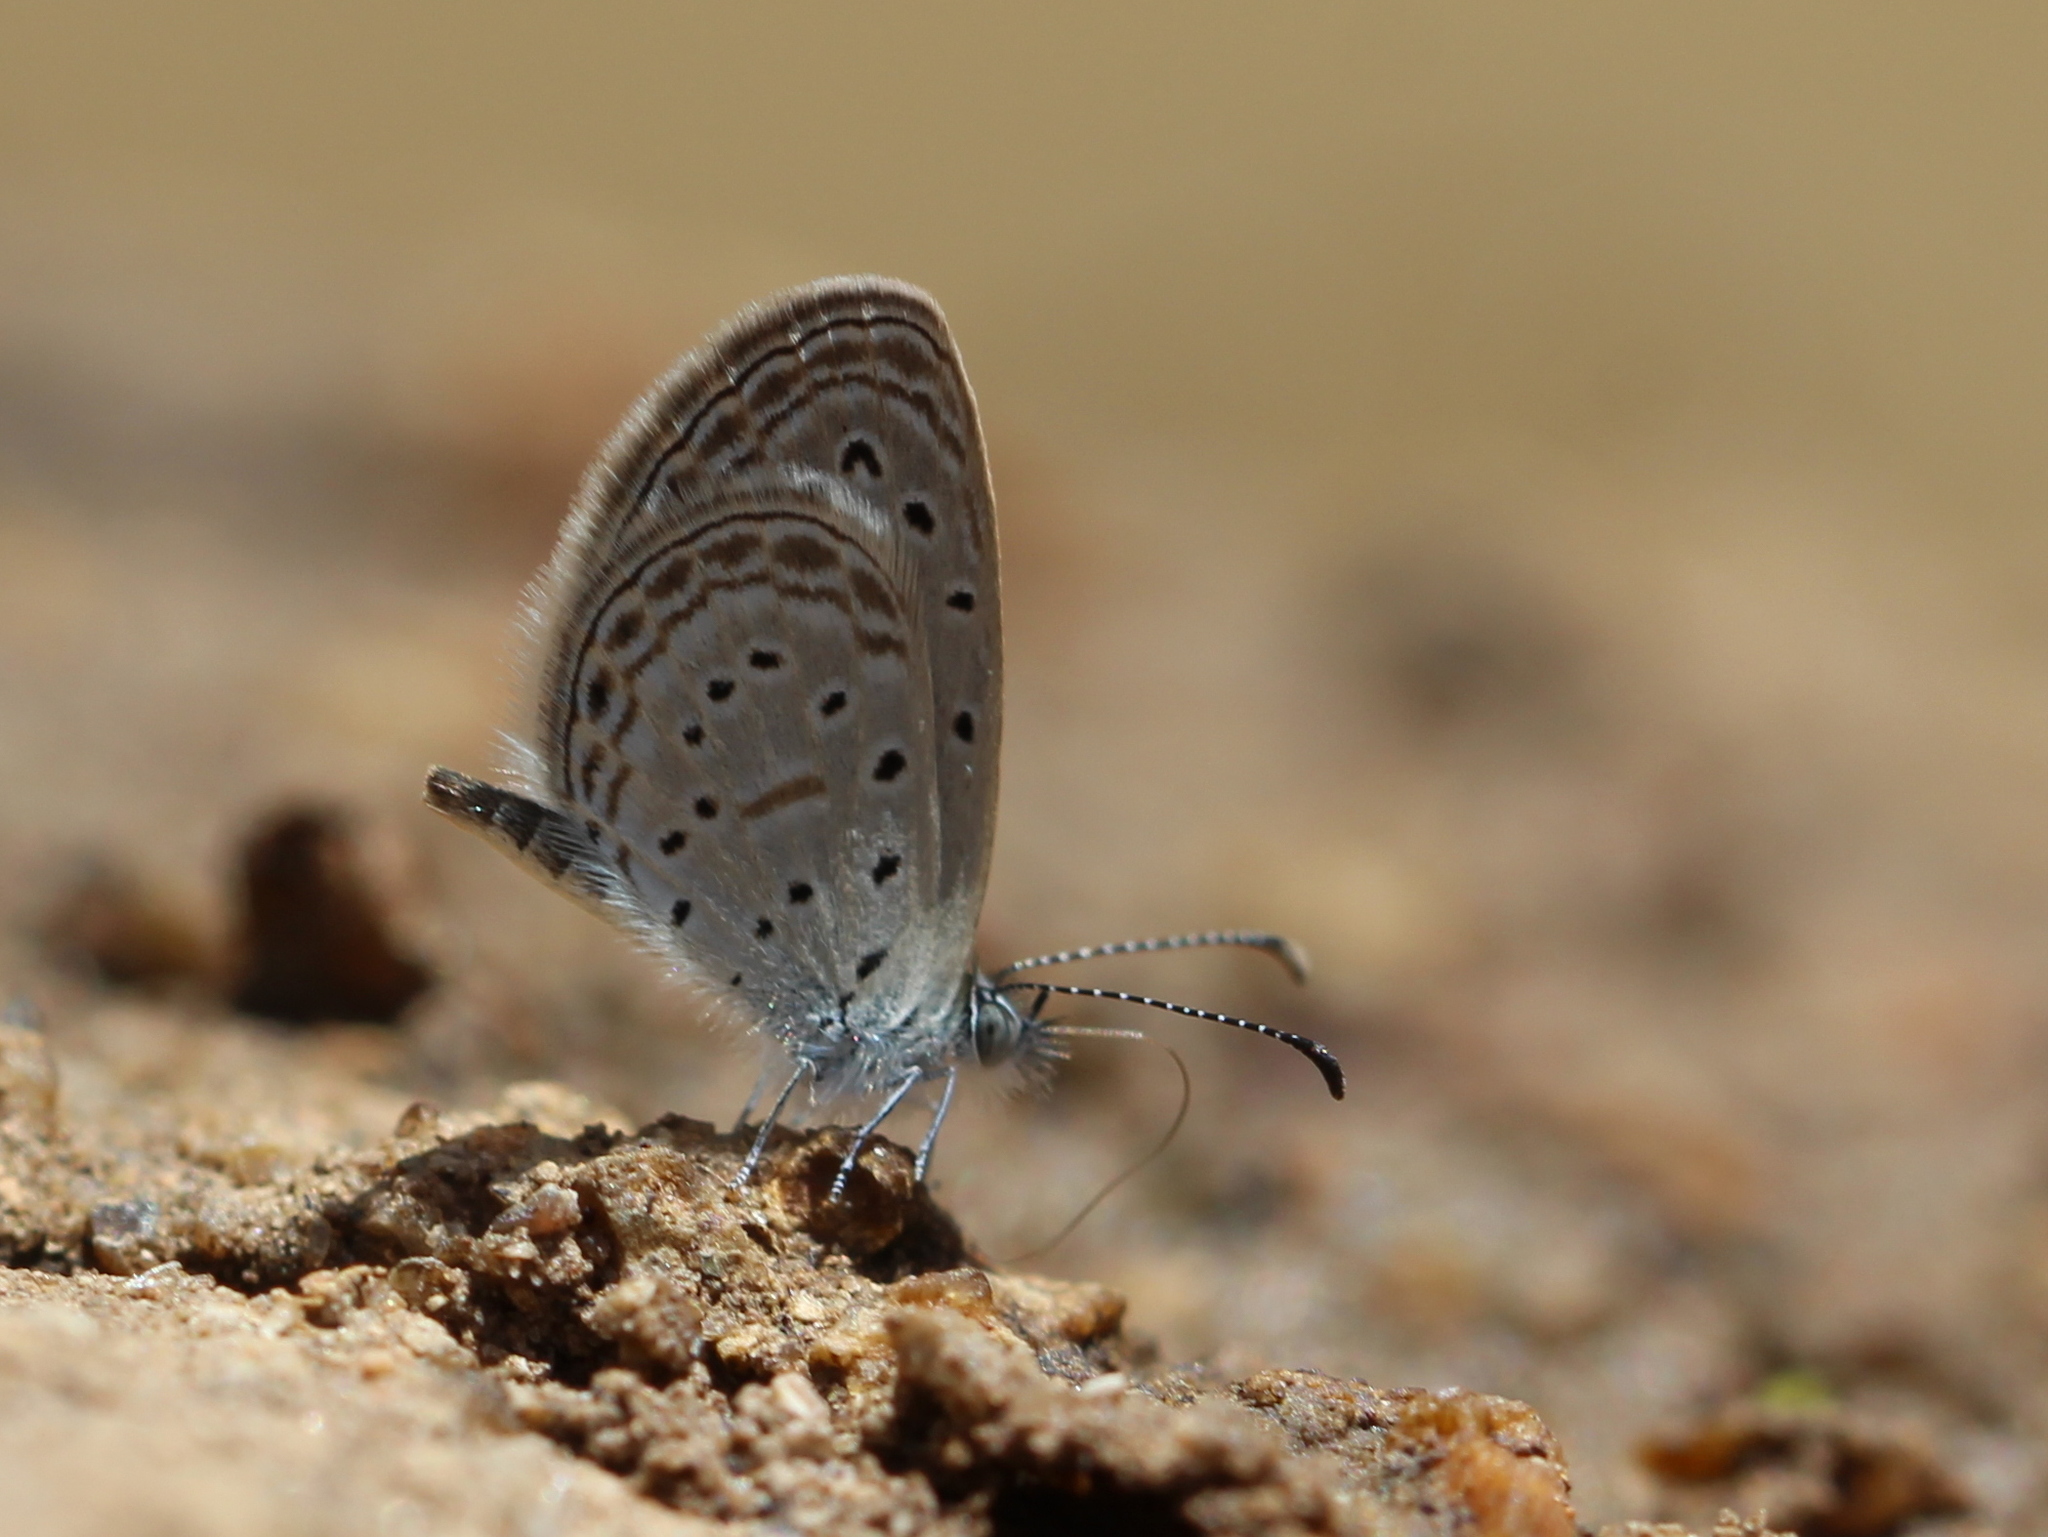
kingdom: Animalia
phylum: Arthropoda
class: Insecta
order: Lepidoptera
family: Lycaenidae
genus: Zizula
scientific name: Zizula hylax
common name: Gaika blue
